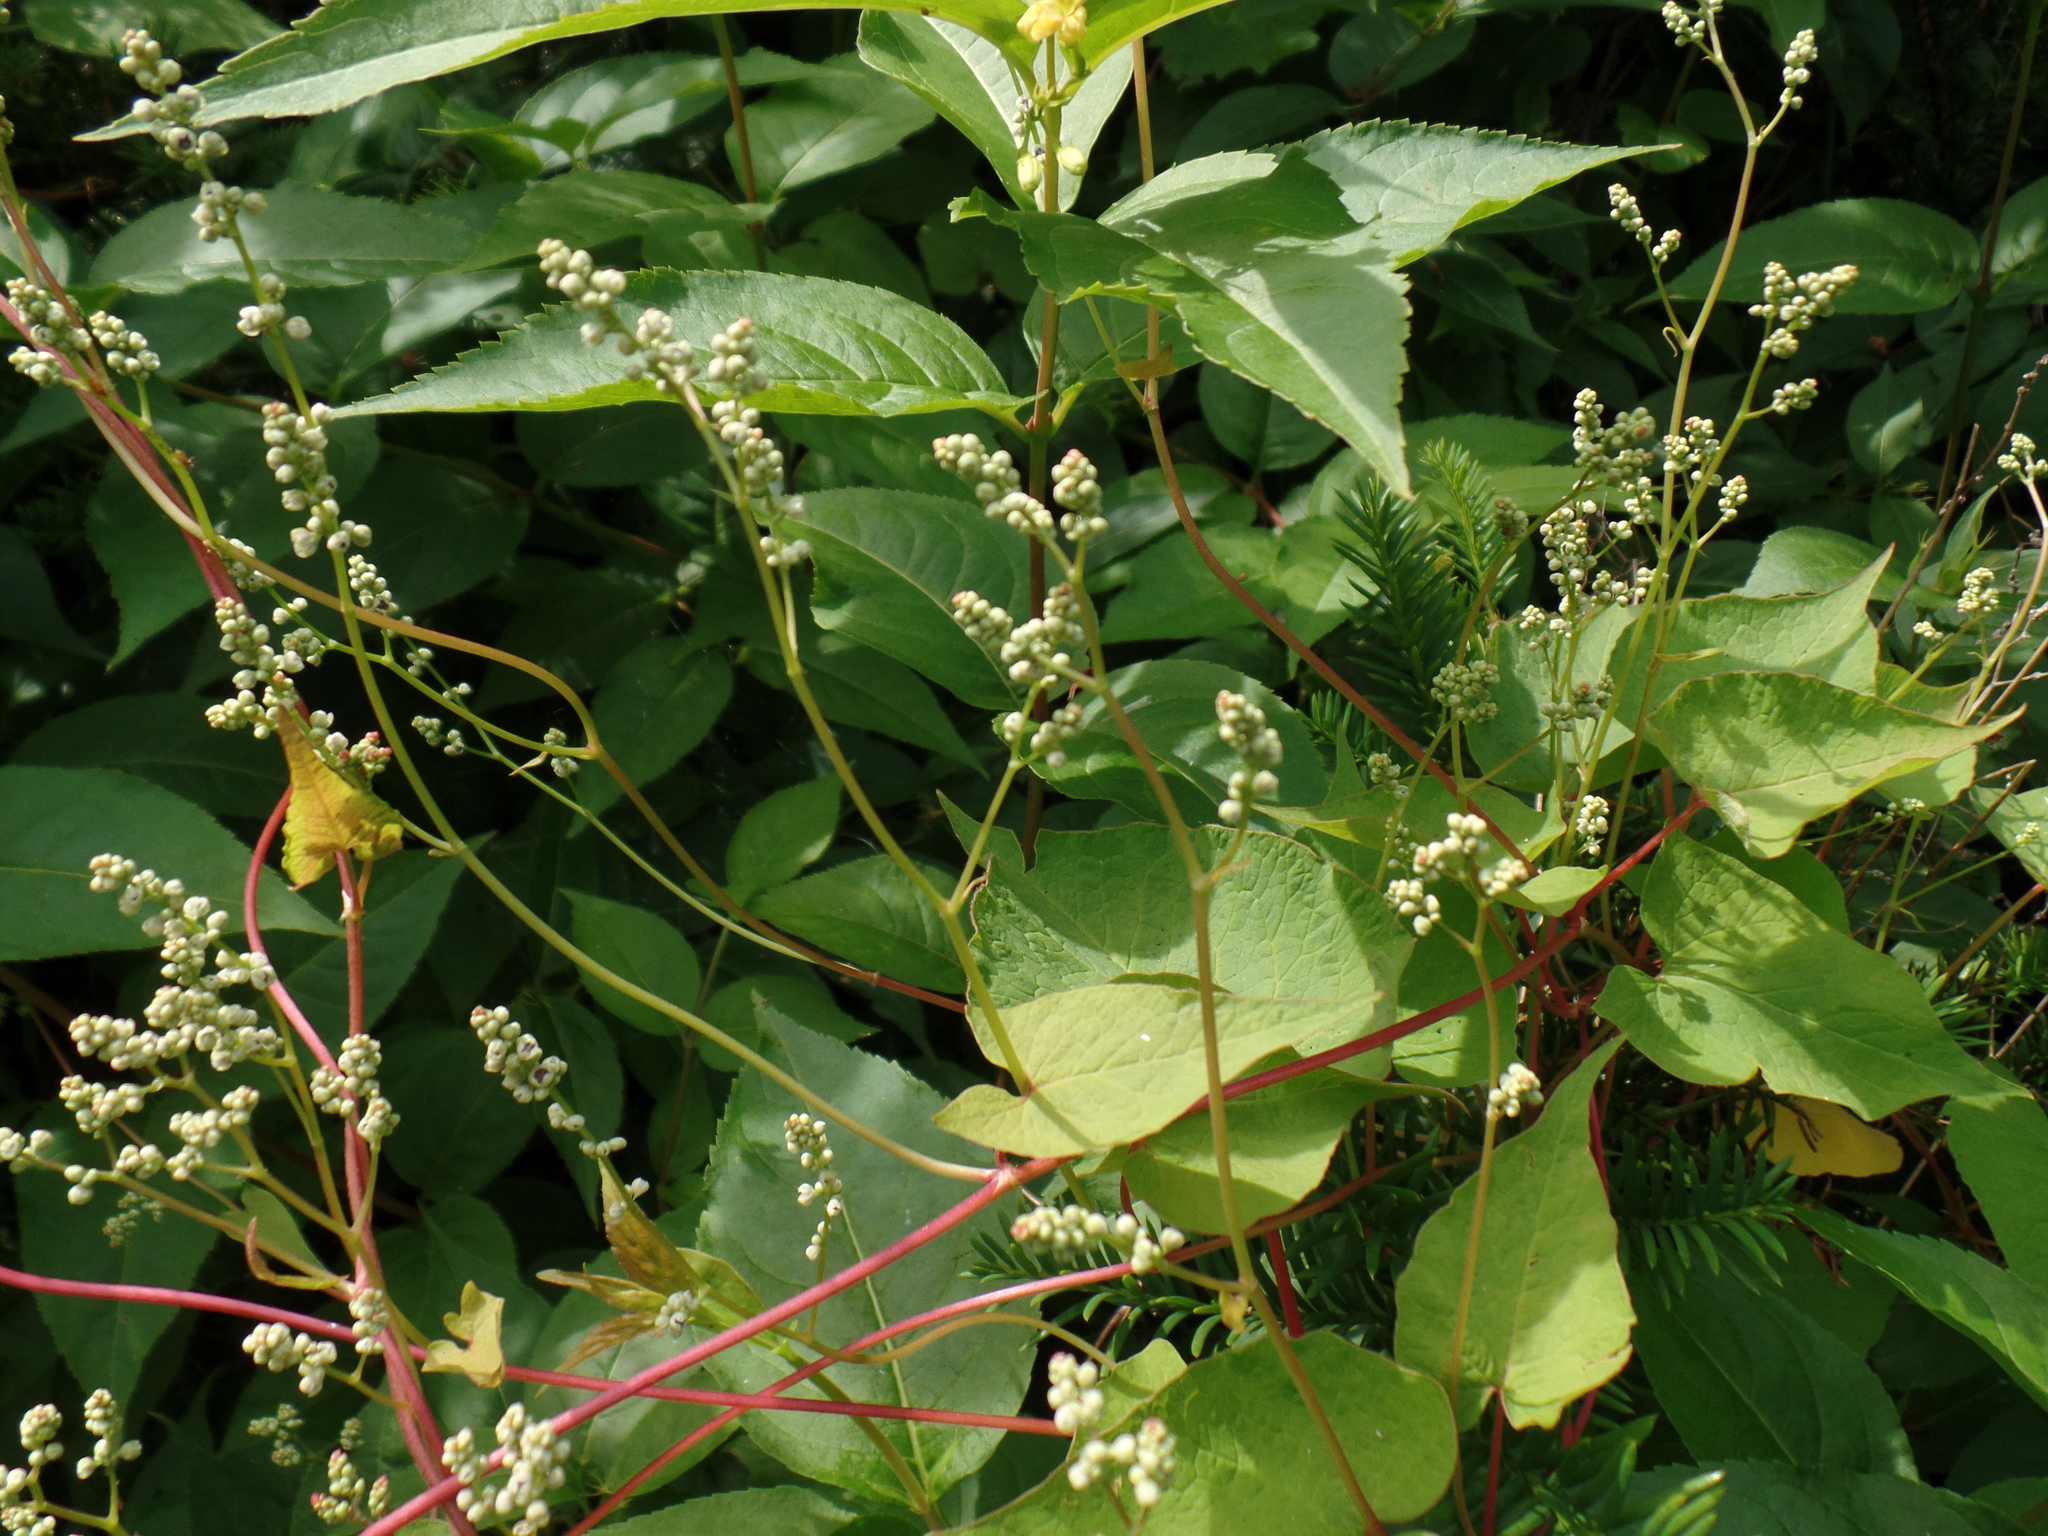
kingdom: Plantae
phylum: Tracheophyta
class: Magnoliopsida
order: Caryophyllales
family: Polygonaceae
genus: Parogonum
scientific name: Parogonum ciliinode
